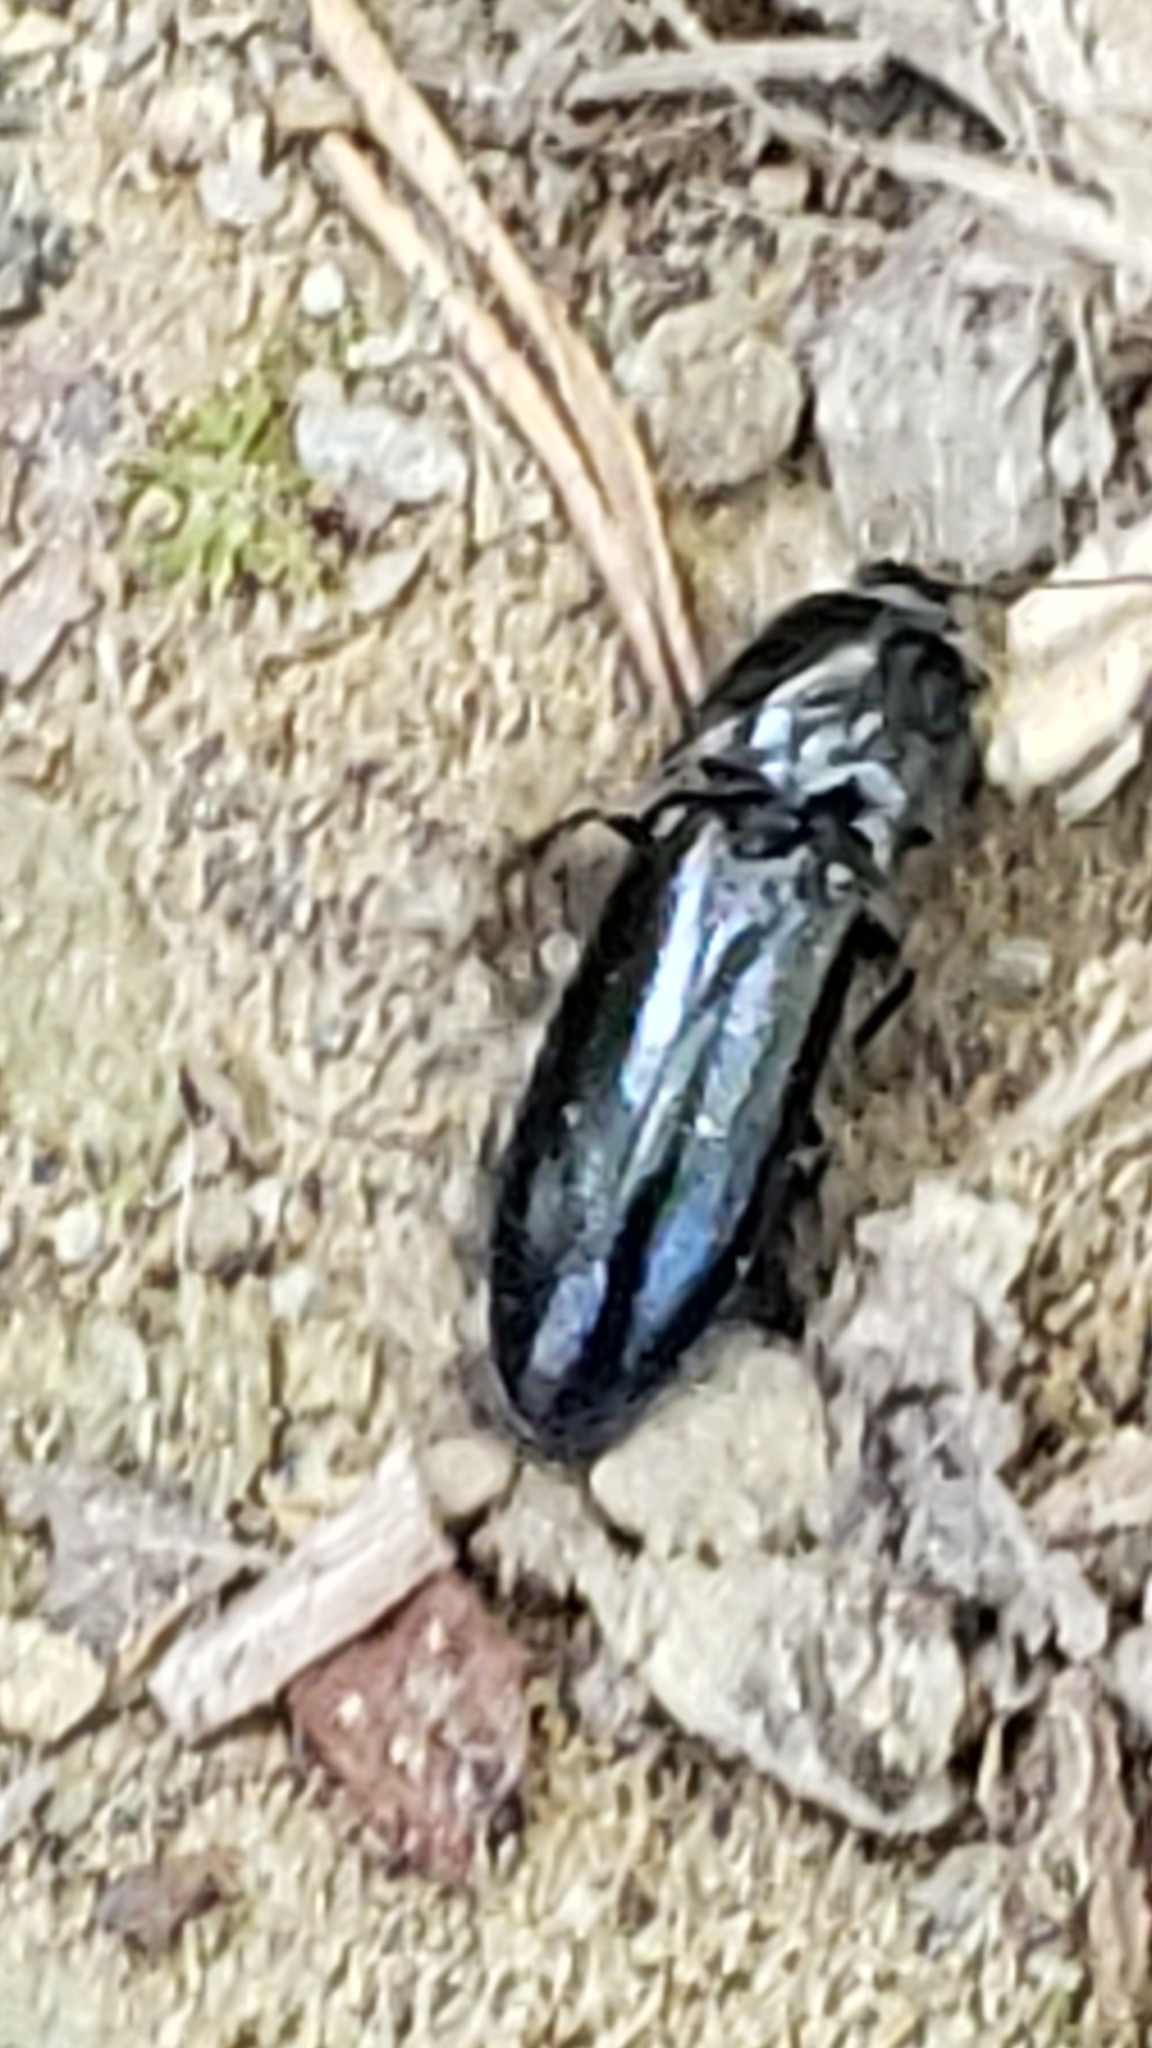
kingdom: Animalia
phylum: Arthropoda
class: Insecta
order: Coleoptera
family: Elateridae
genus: Melanactes
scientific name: Melanactes piceus
